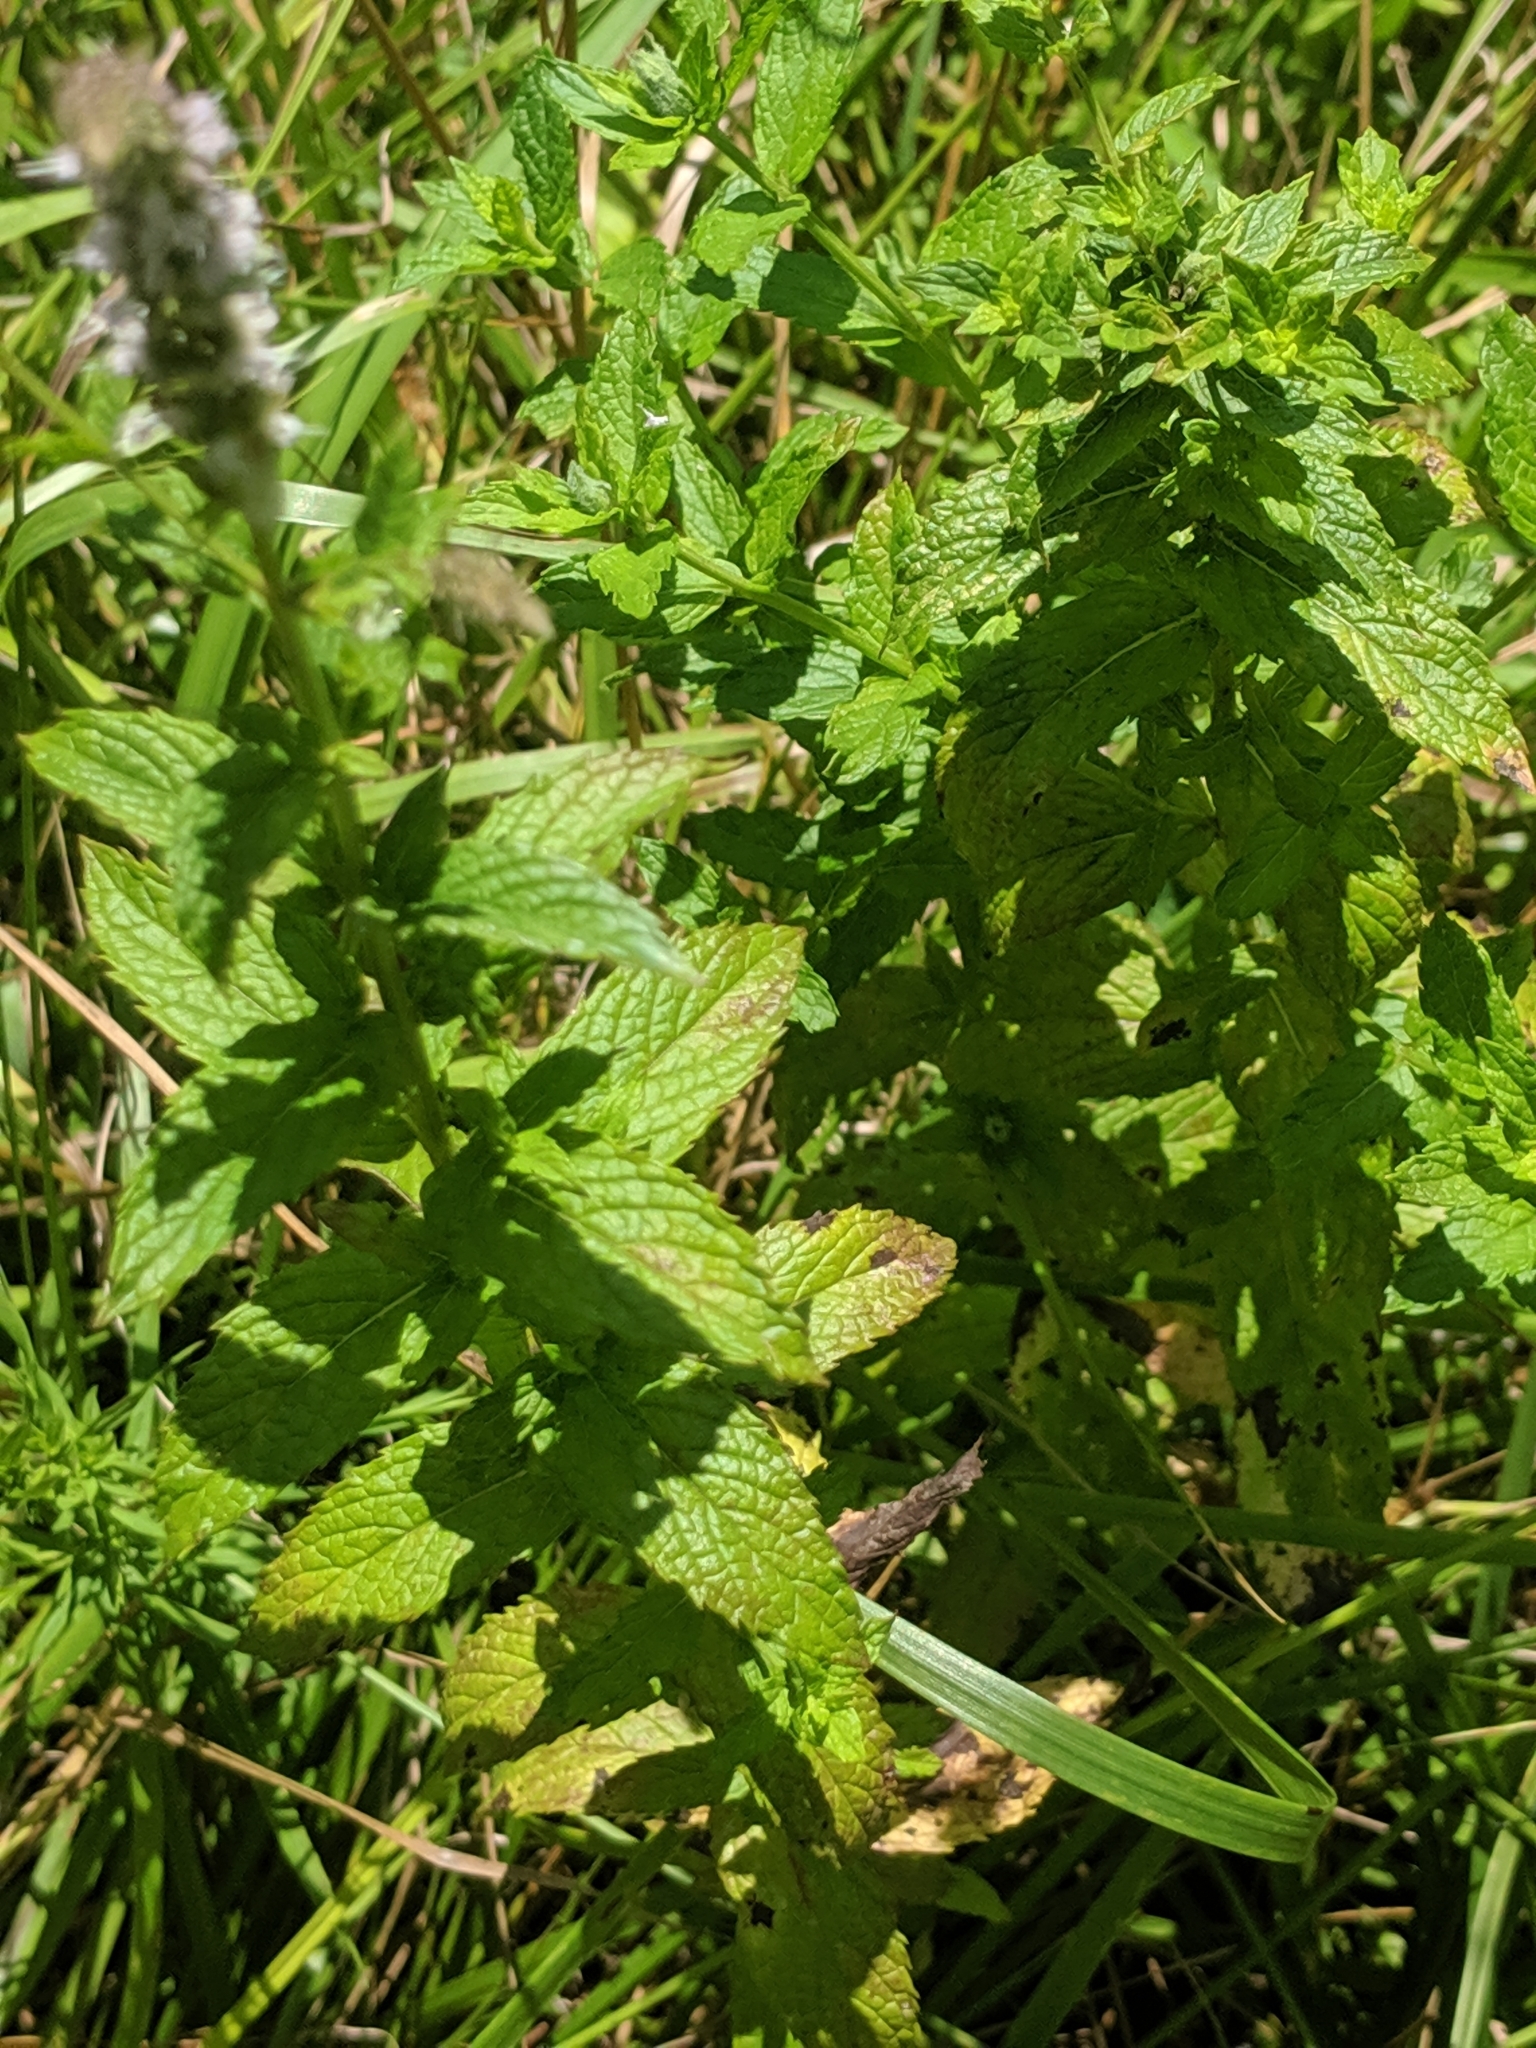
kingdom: Plantae
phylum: Tracheophyta
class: Magnoliopsida
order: Lamiales
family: Lamiaceae
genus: Mentha
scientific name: Mentha spicata
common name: Spearmint
